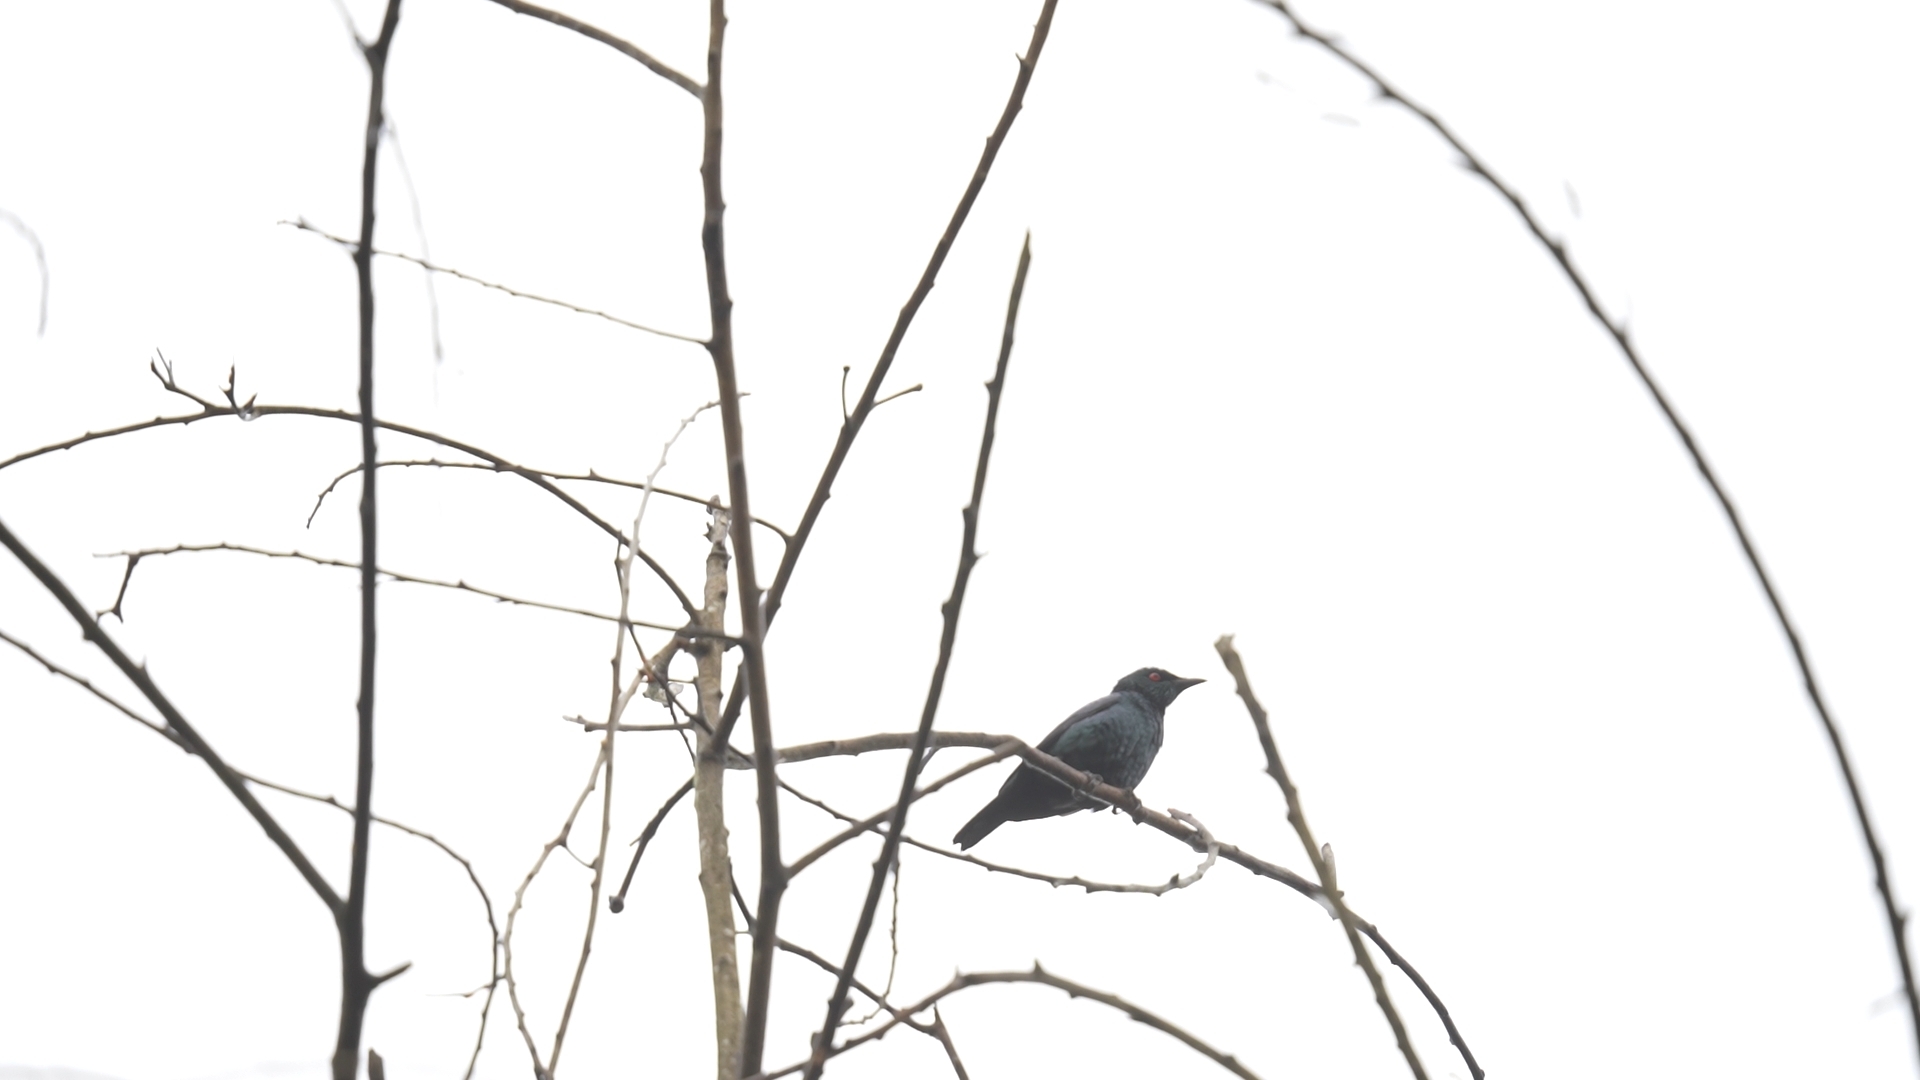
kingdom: Animalia
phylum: Chordata
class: Aves
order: Passeriformes
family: Sturnidae
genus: Aplonis
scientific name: Aplonis panayensis
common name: Asian glossy starling
